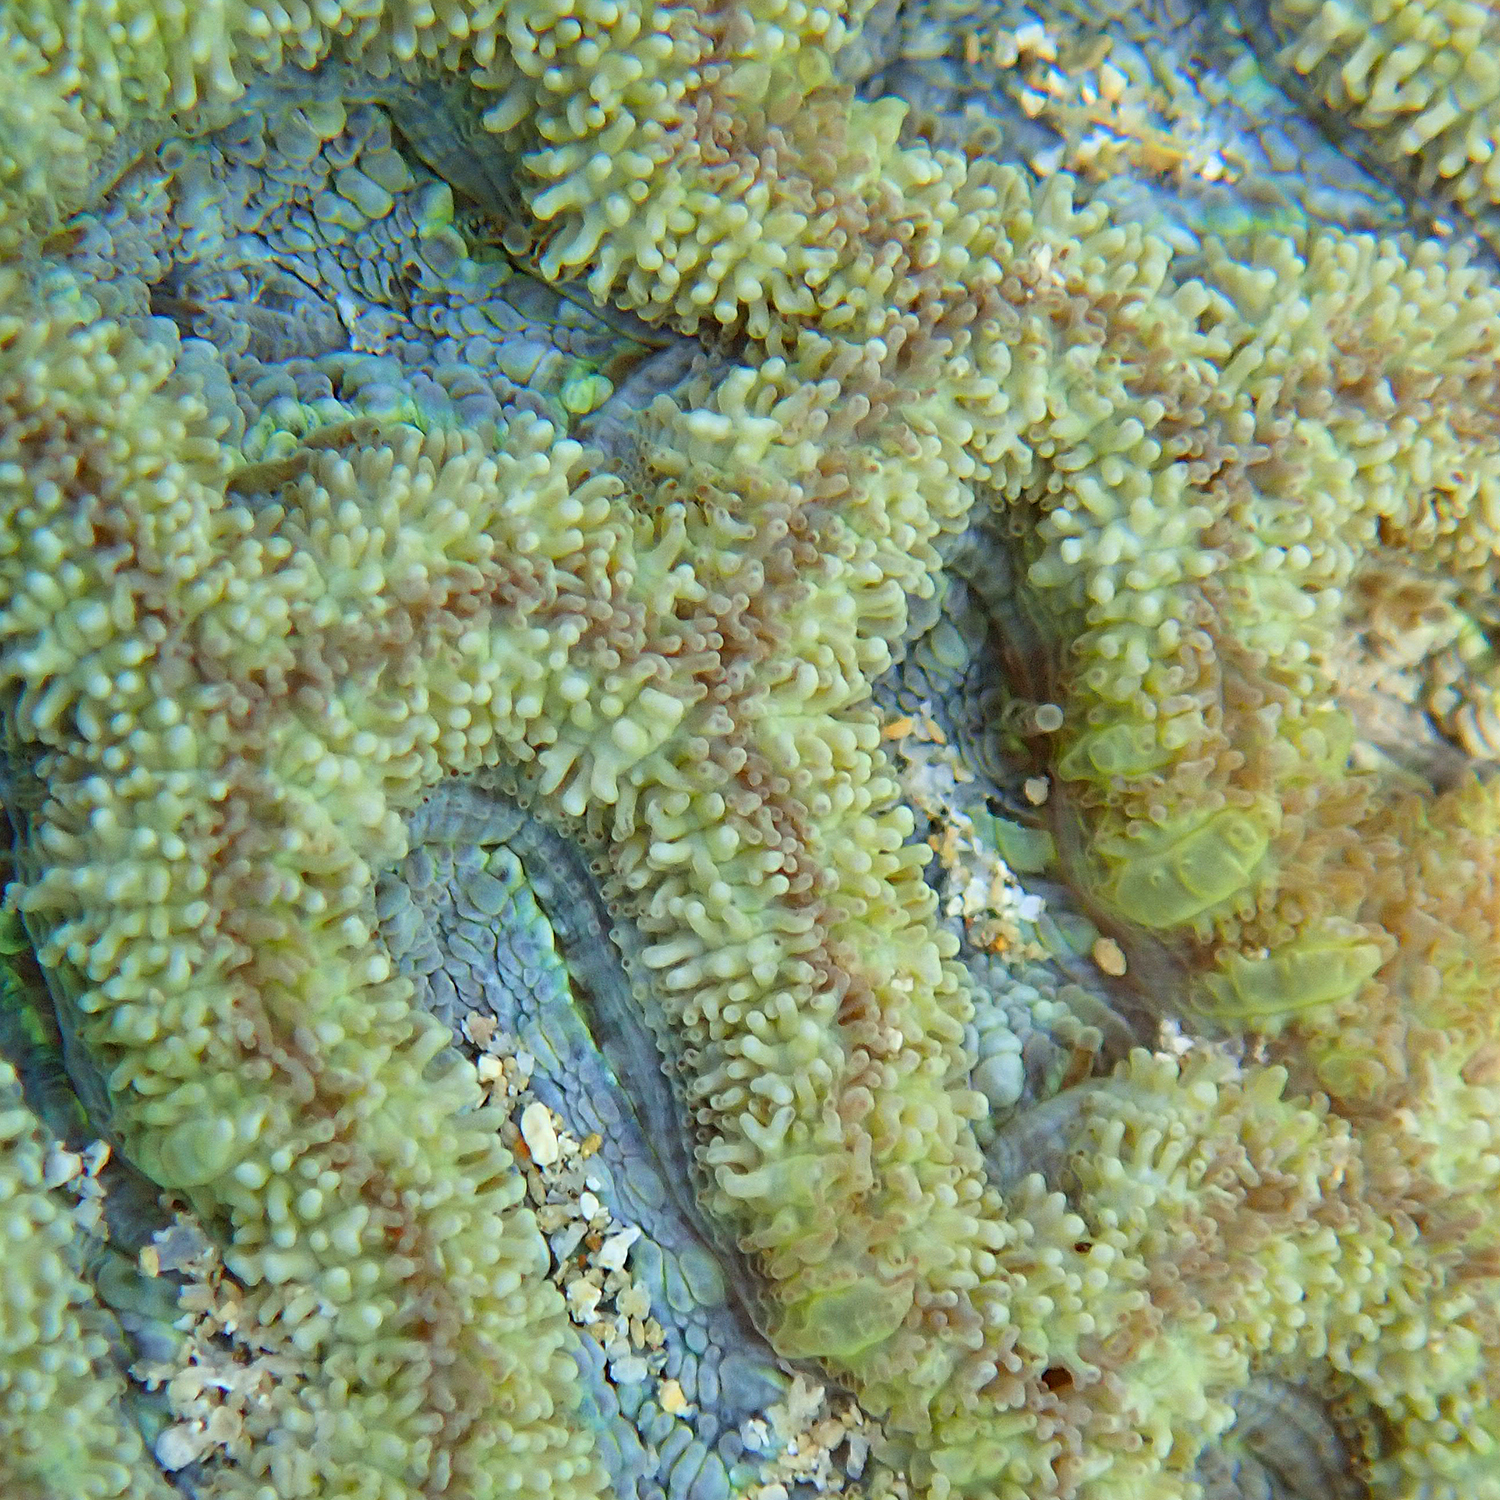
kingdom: Animalia
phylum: Cnidaria
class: Anthozoa
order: Scleractinia
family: Lobophylliidae
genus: Micromussa
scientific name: Micromussa lordhowensis
